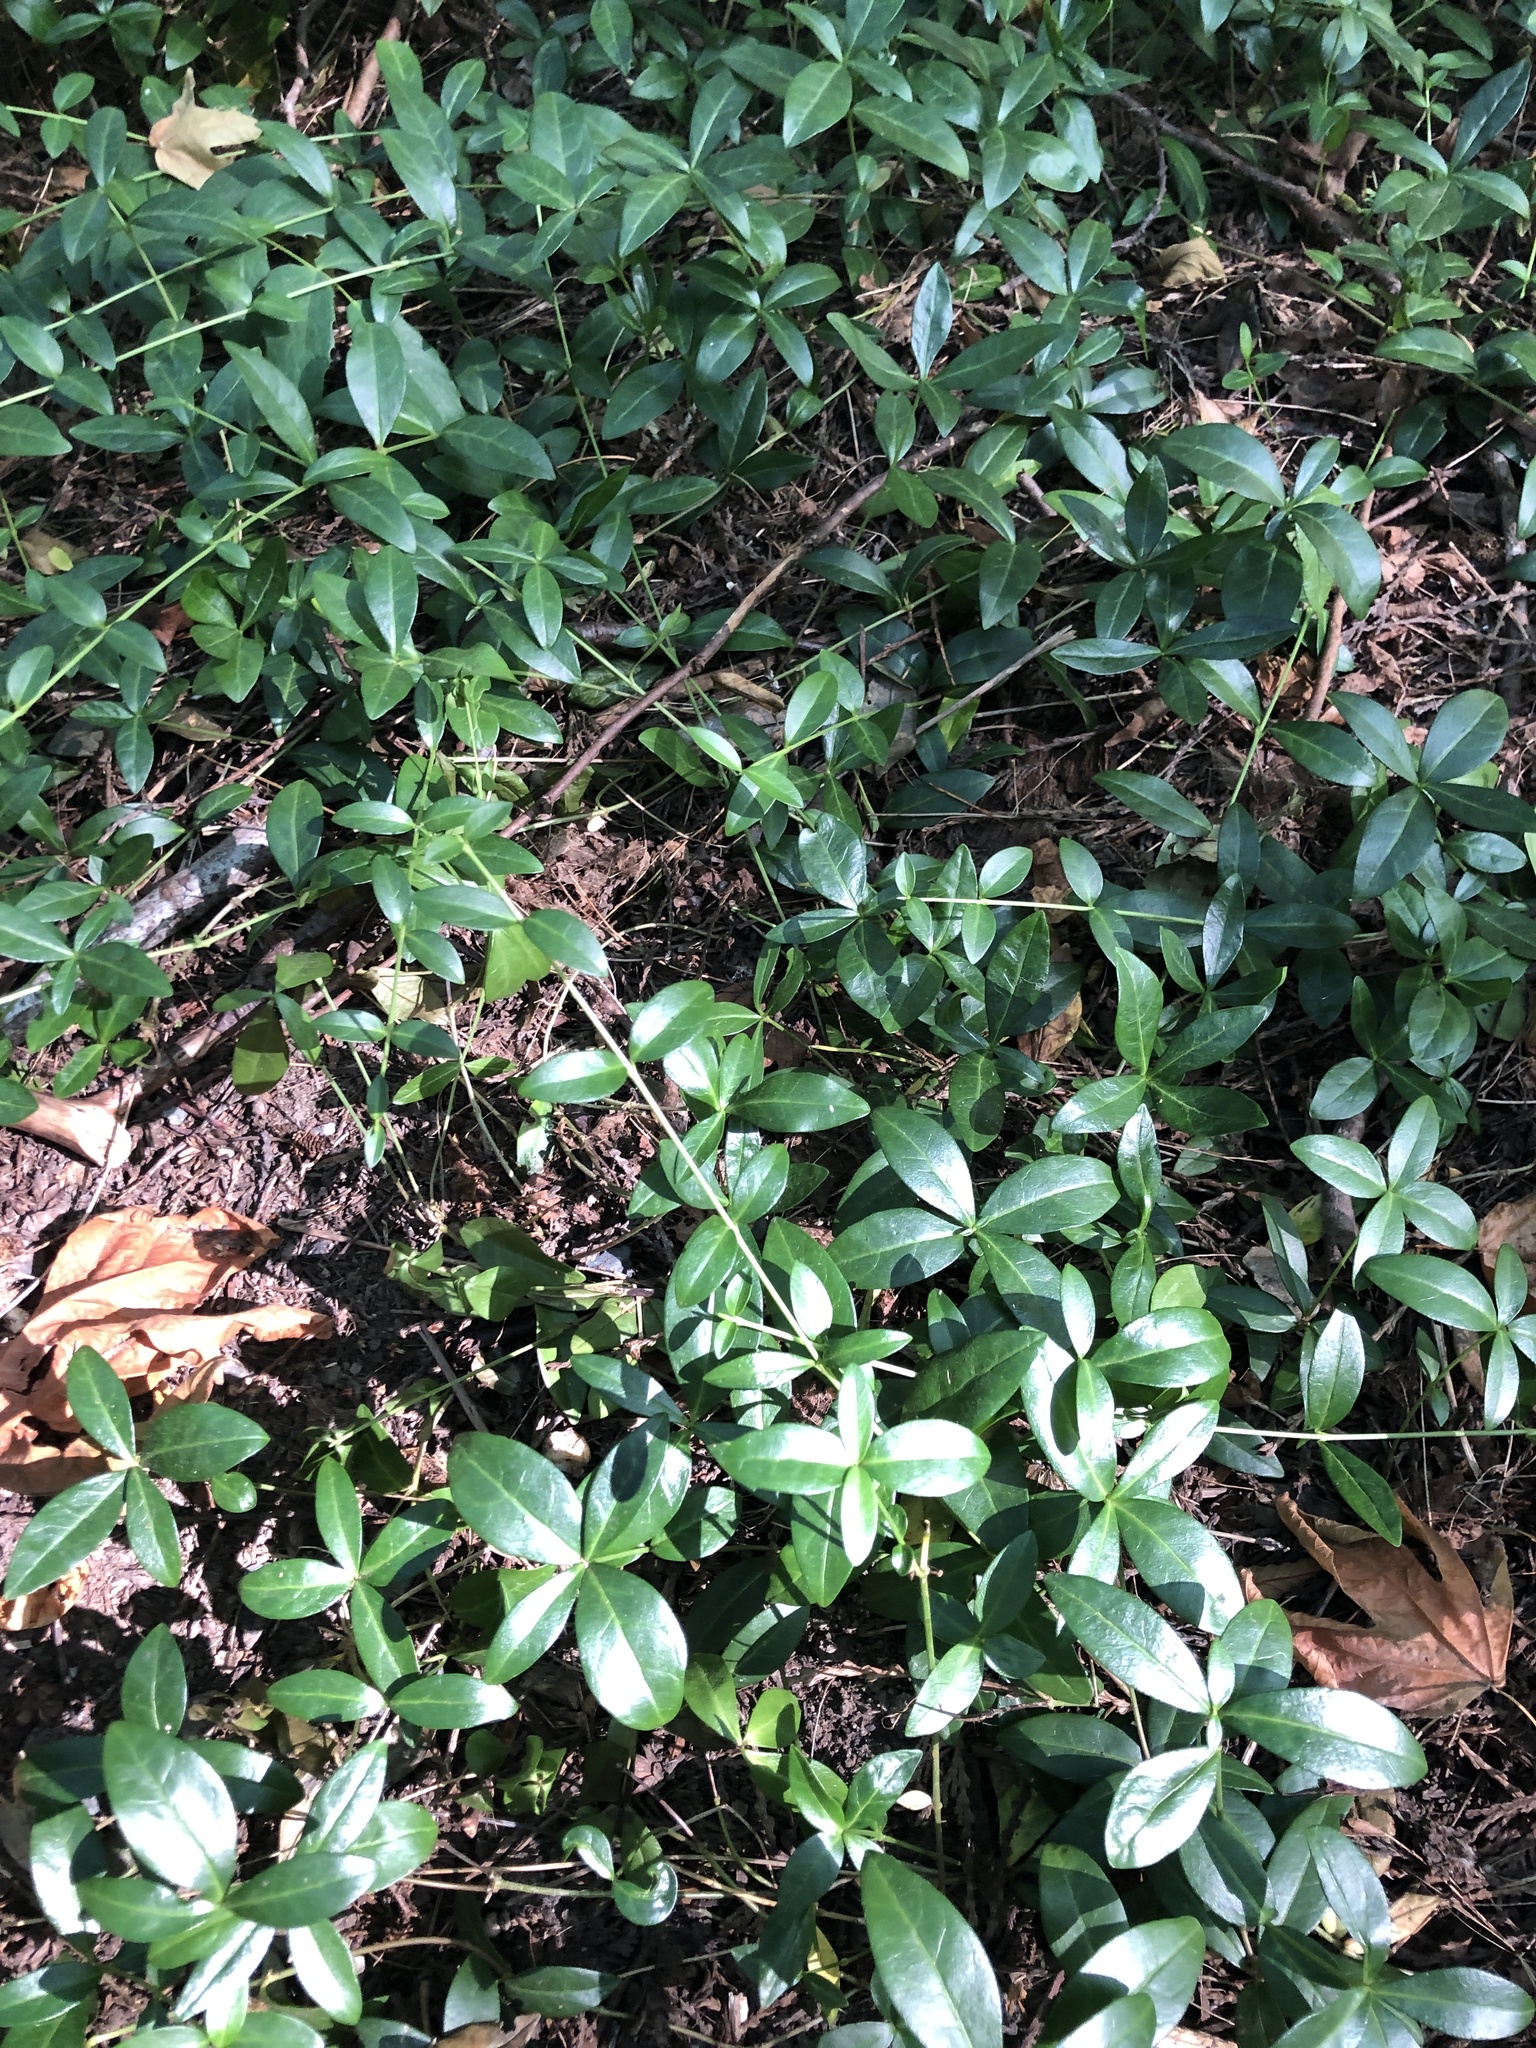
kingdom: Plantae
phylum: Tracheophyta
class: Magnoliopsida
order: Gentianales
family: Apocynaceae
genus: Vinca
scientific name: Vinca minor
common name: Lesser periwinkle
